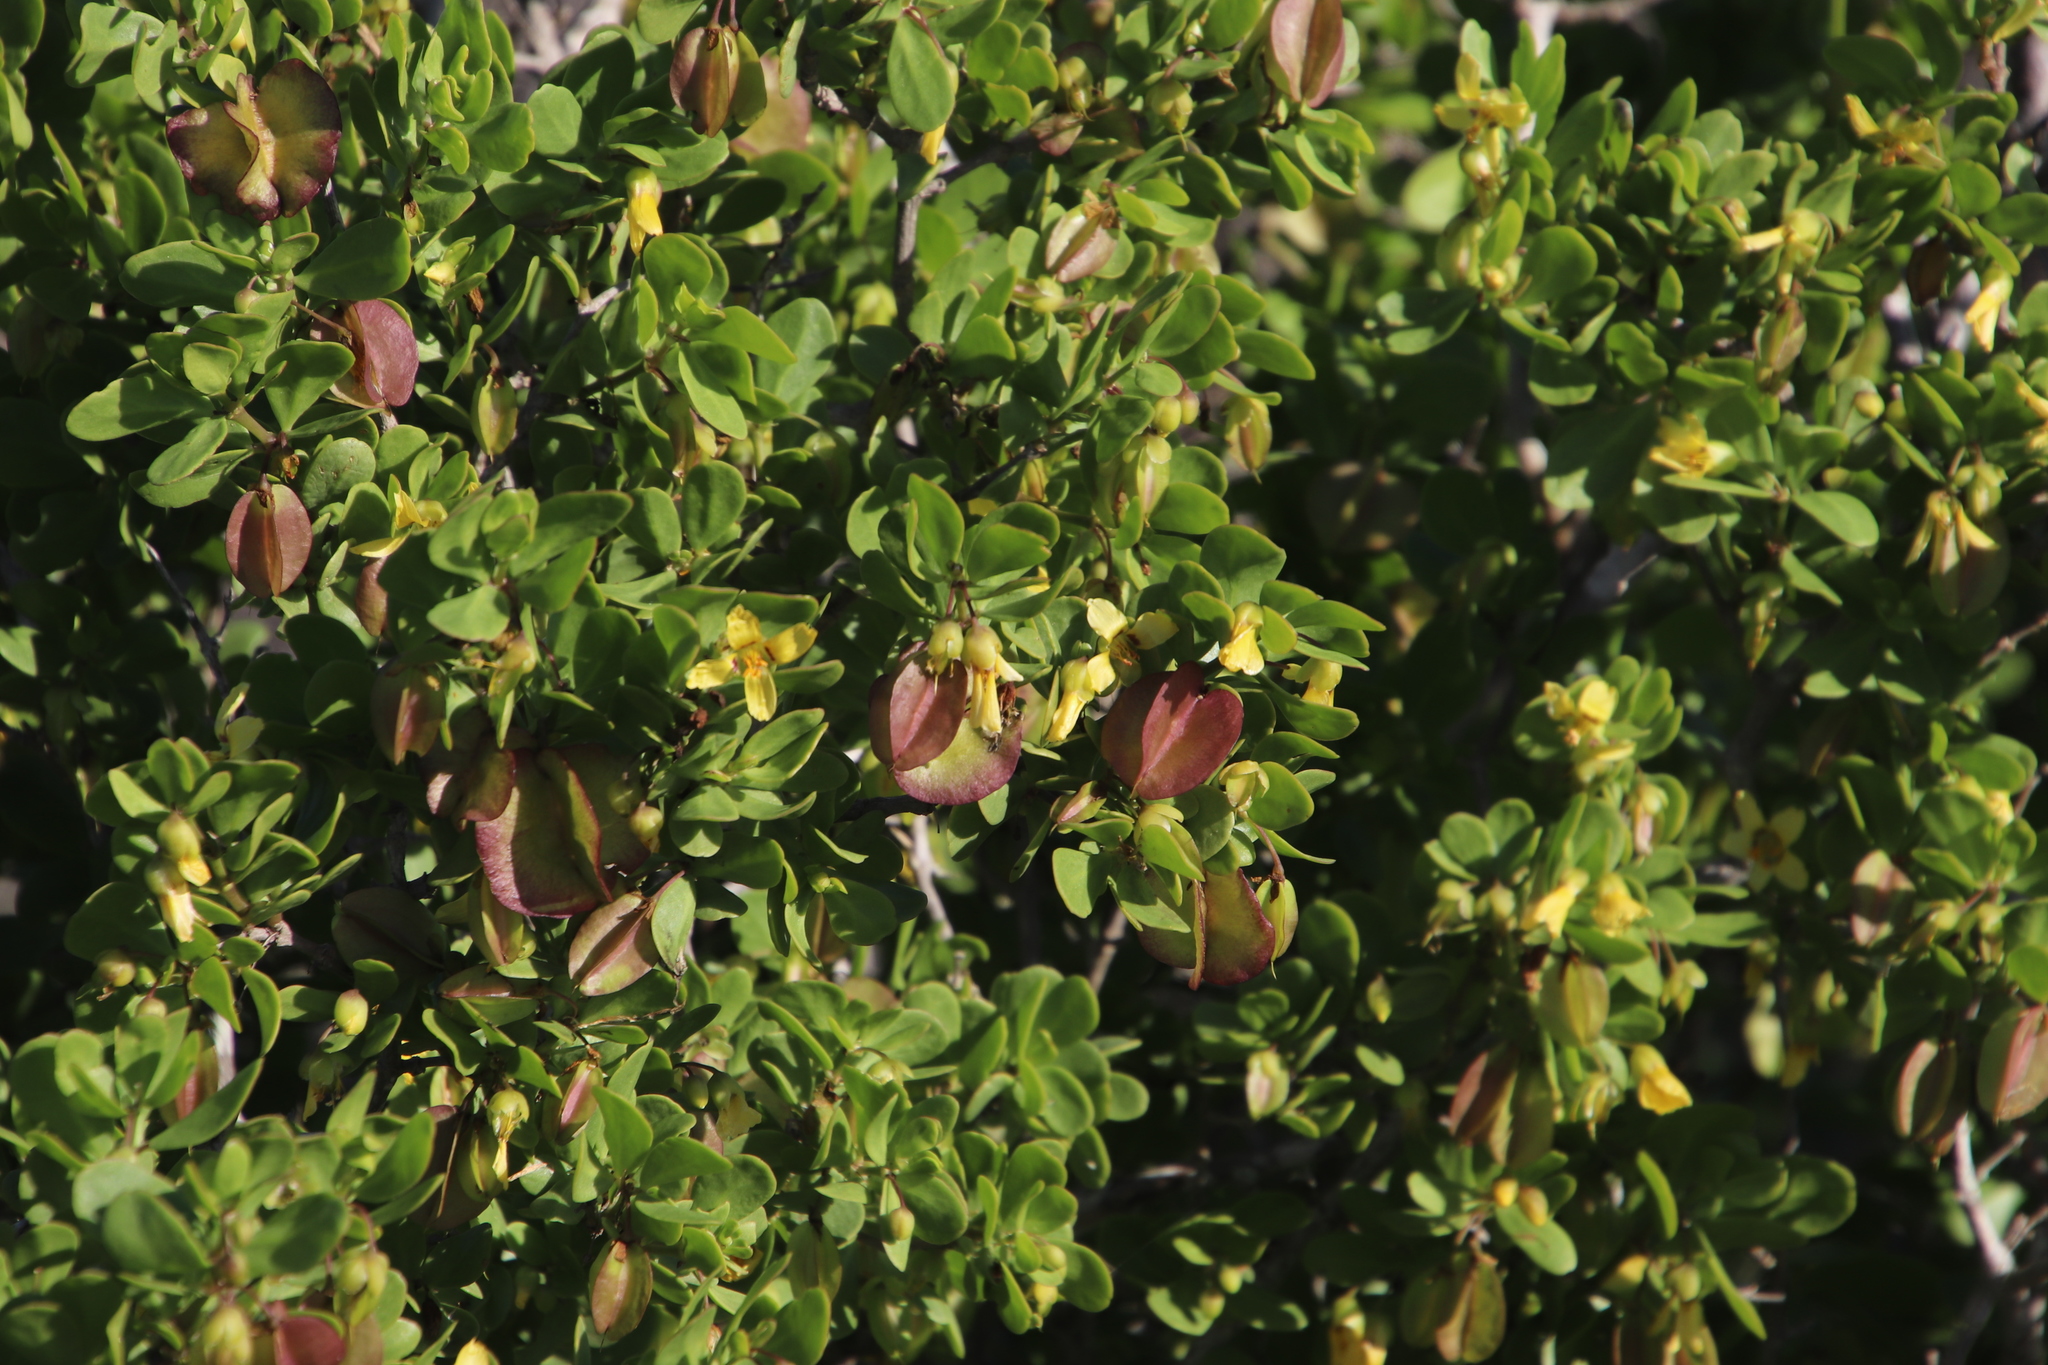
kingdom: Plantae
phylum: Tracheophyta
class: Magnoliopsida
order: Zygophyllales
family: Zygophyllaceae
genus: Roepera
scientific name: Roepera morgsana
